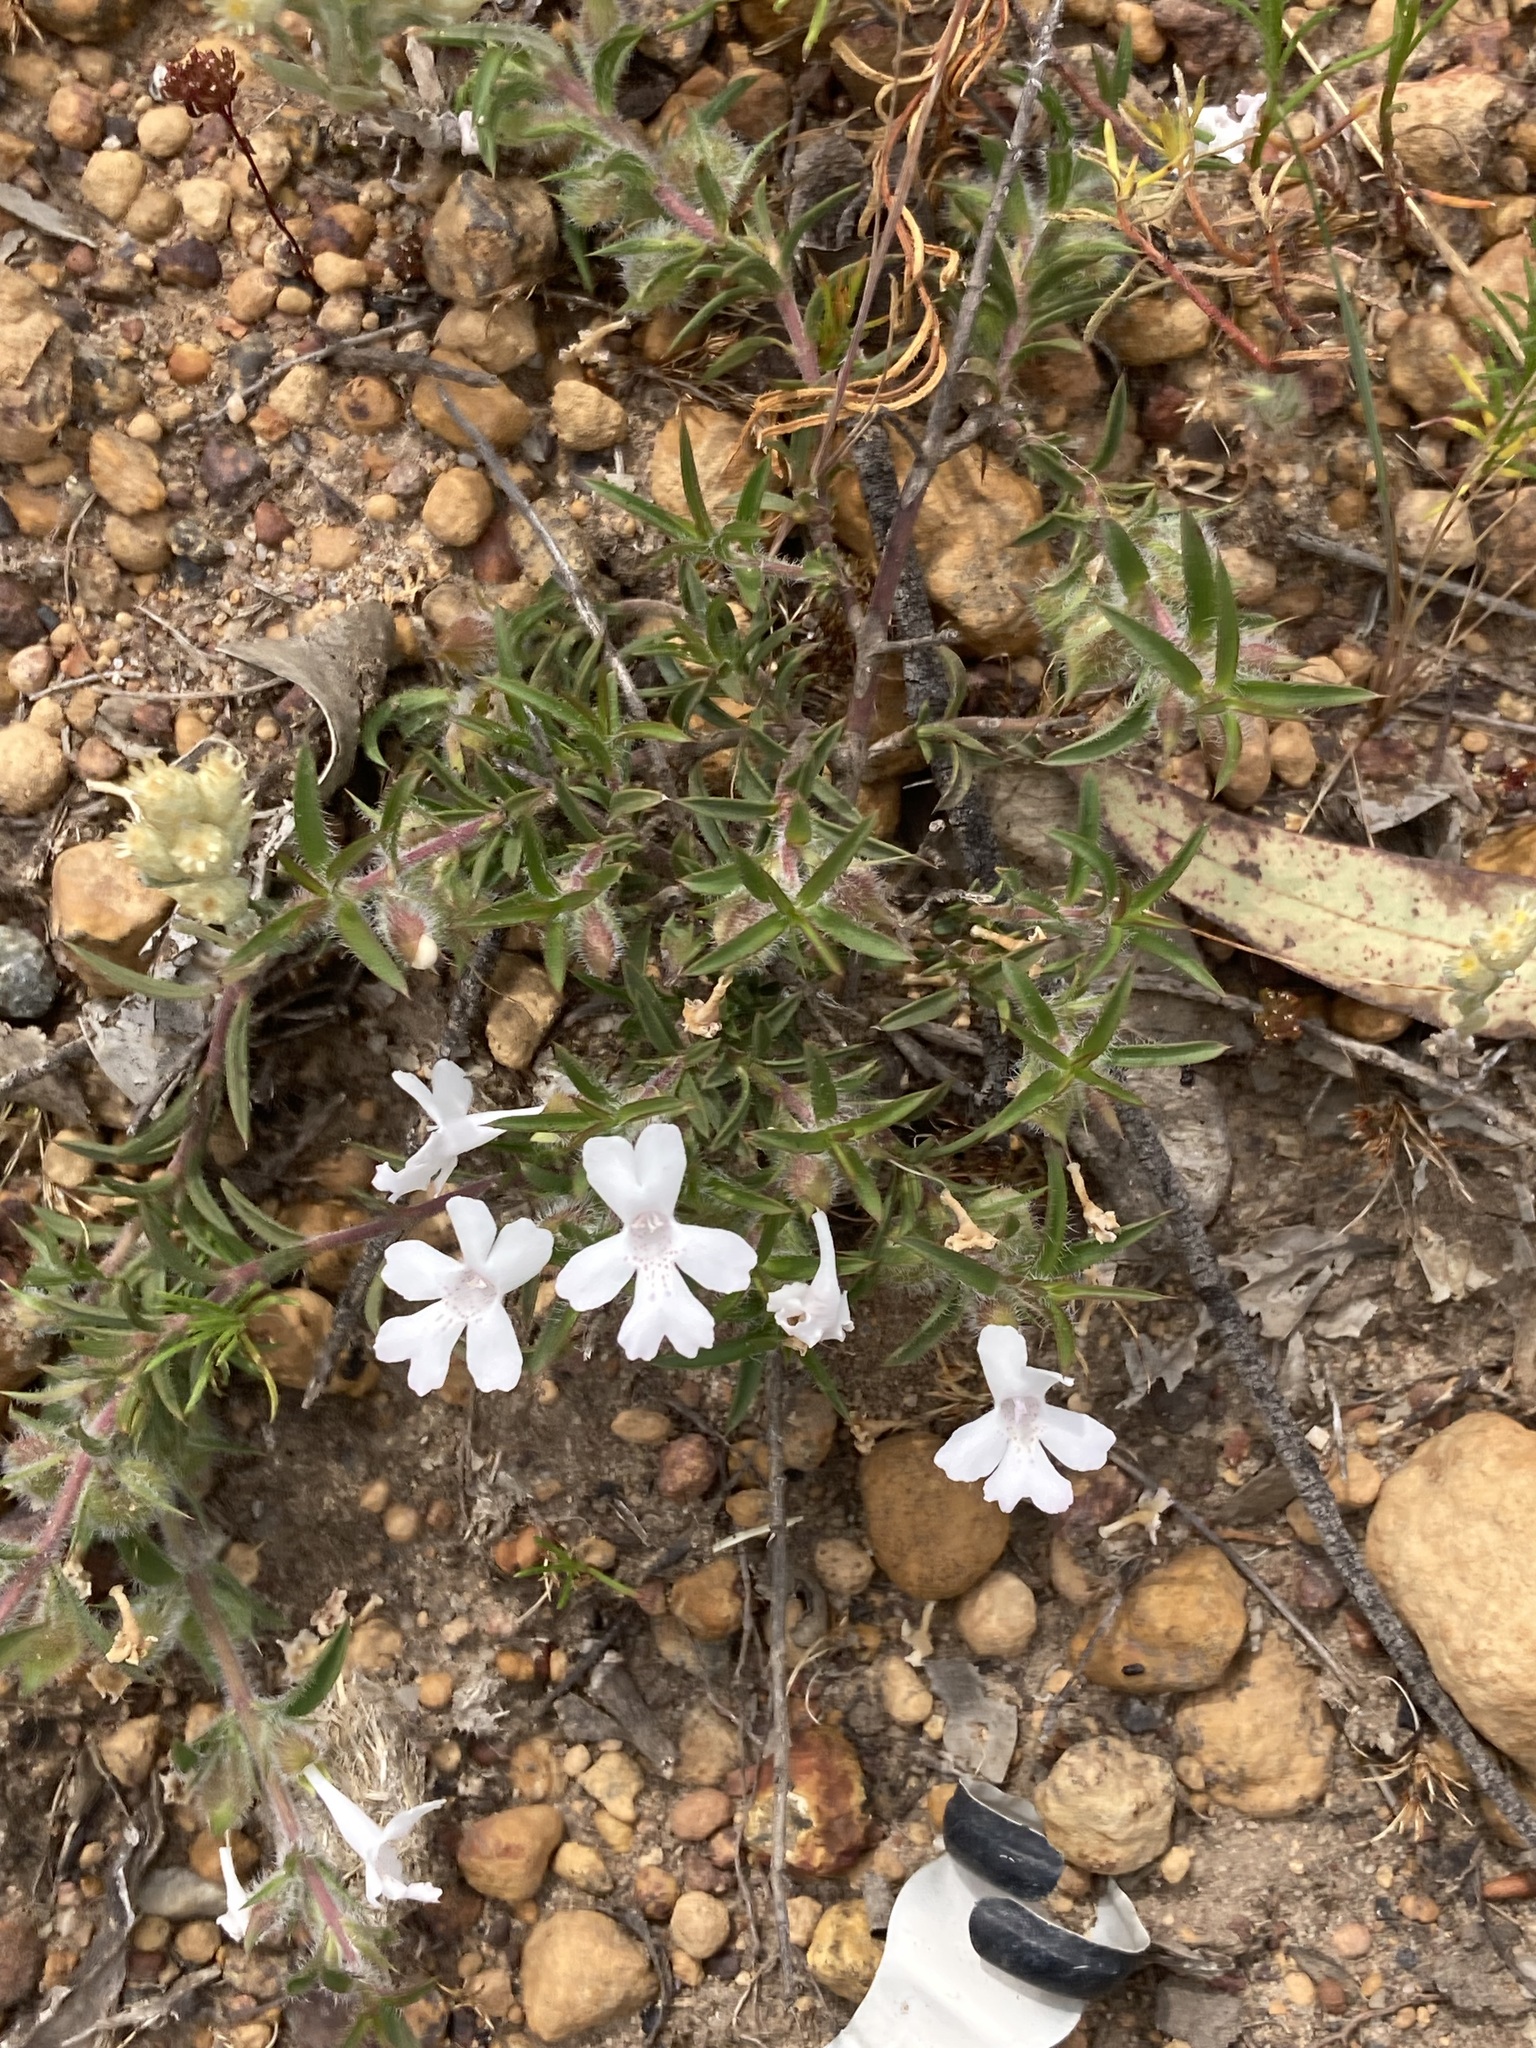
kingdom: Plantae
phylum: Tracheophyta
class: Magnoliopsida
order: Lamiales
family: Lamiaceae
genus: Hemiandra
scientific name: Hemiandra pungens
